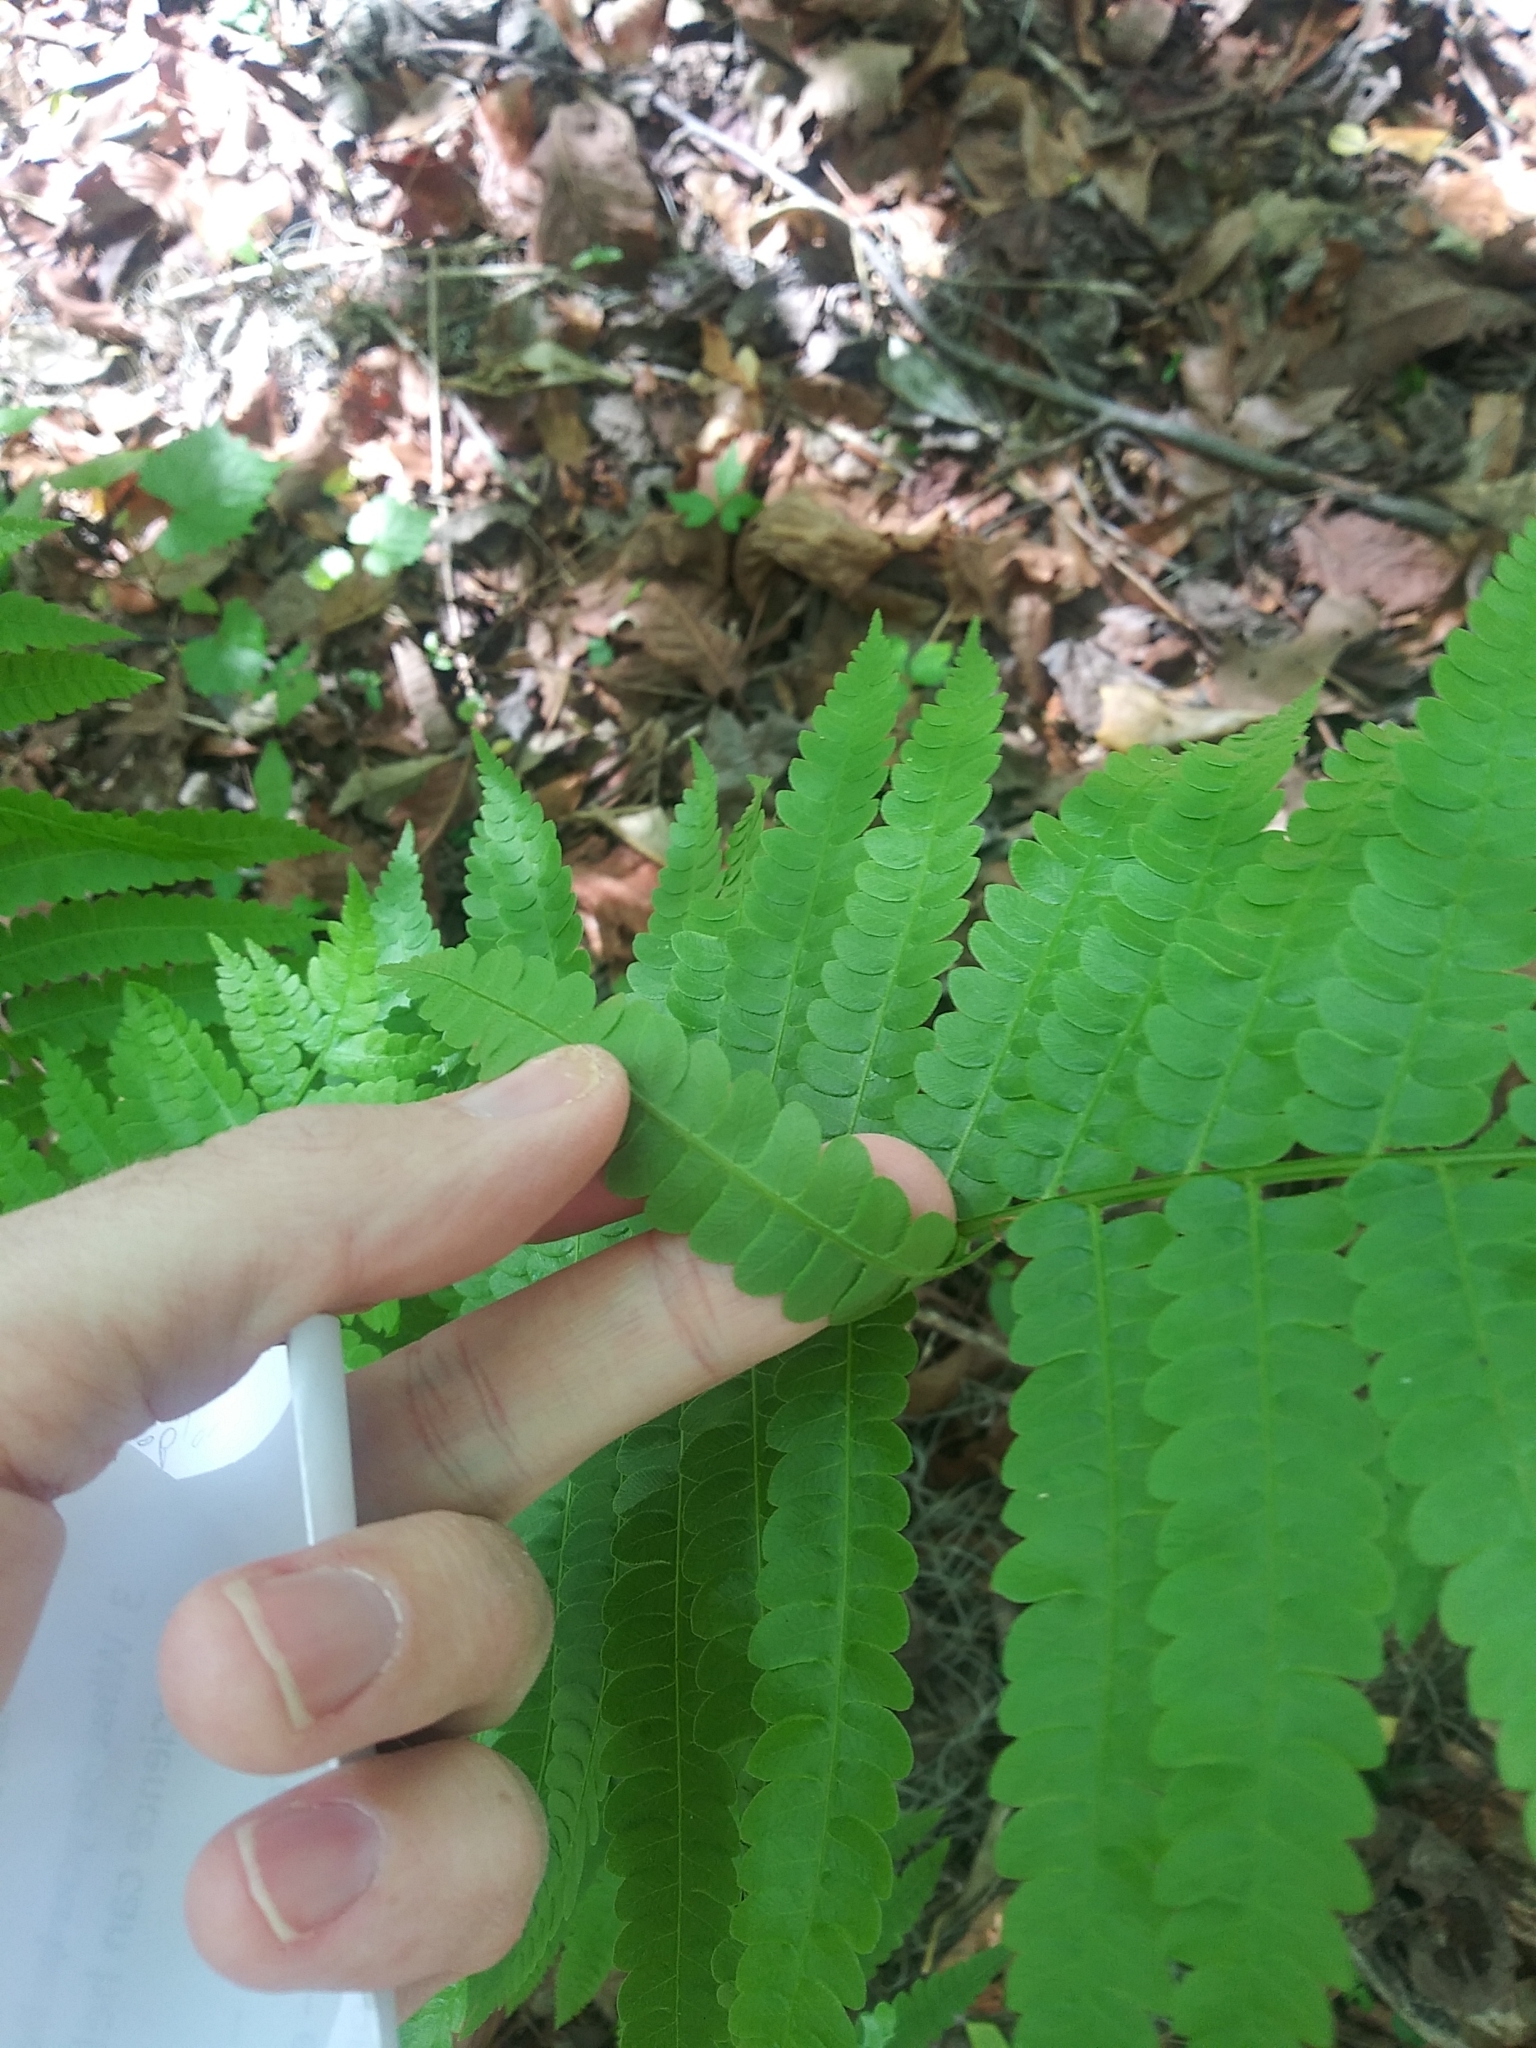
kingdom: Plantae
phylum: Tracheophyta
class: Polypodiopsida
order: Osmundales
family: Osmundaceae
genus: Osmundastrum
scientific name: Osmundastrum cinnamomeum
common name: Cinnamon fern
